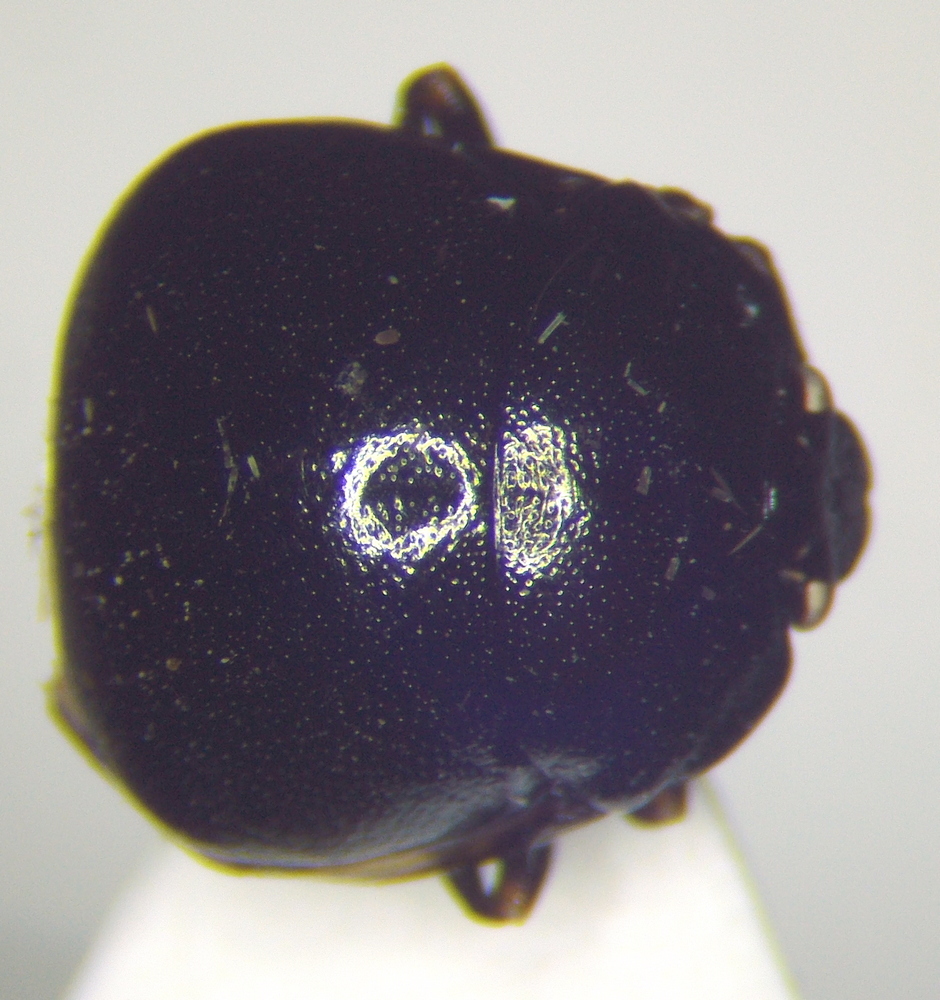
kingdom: Animalia
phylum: Arthropoda
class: Insecta
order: Hemiptera
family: Plataspidae
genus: Coptosoma
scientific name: Coptosoma scutellatum
